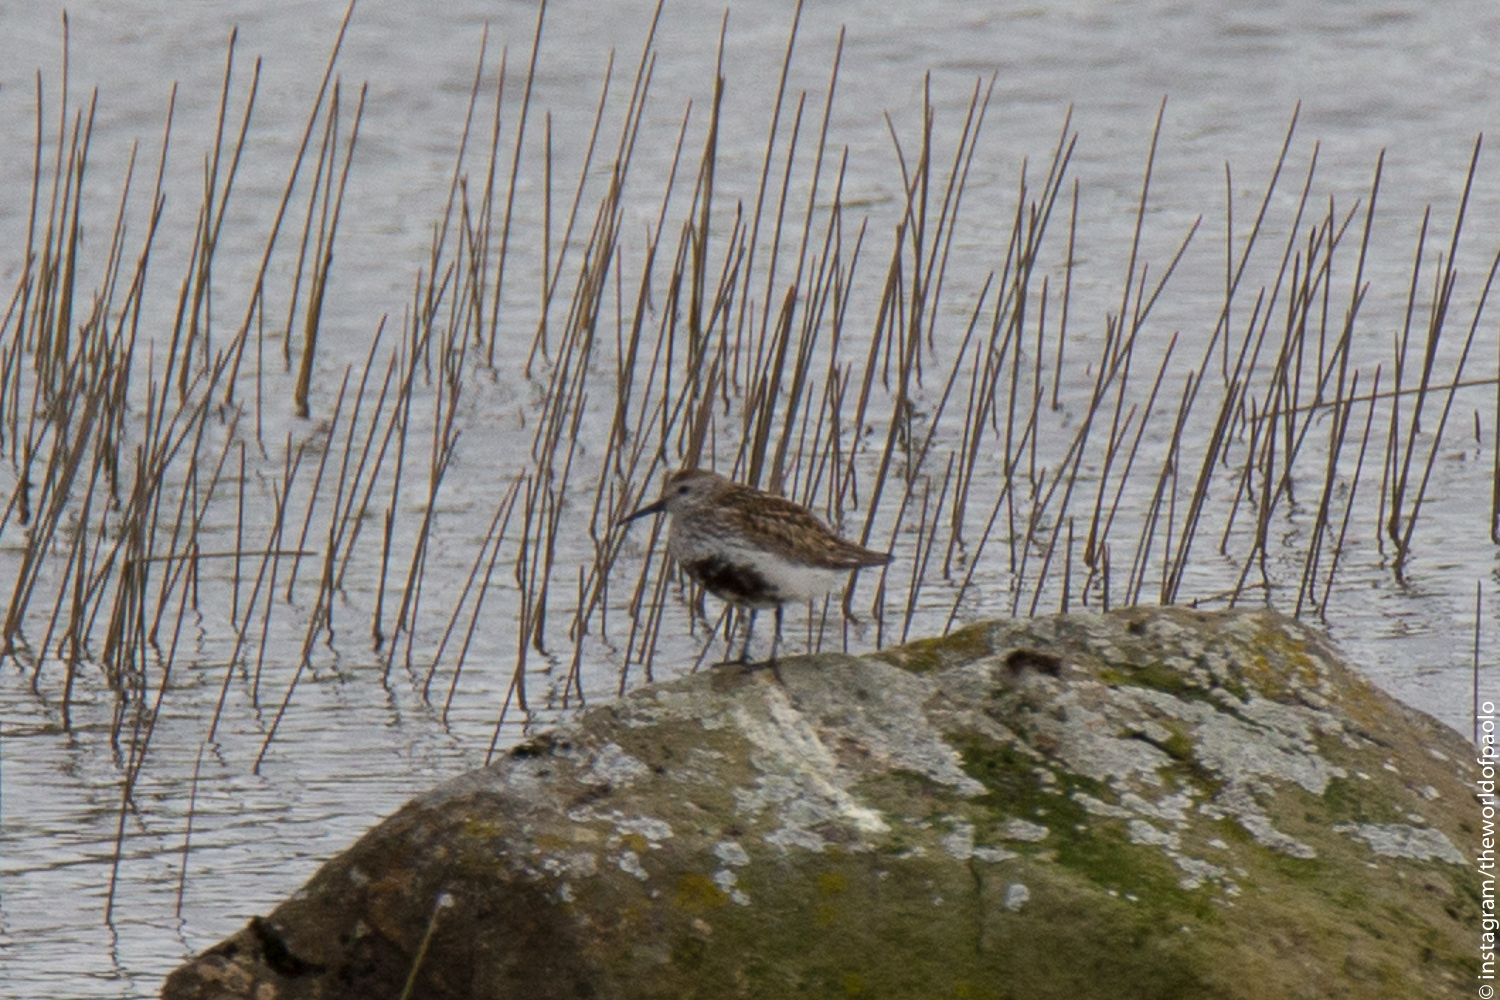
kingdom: Animalia
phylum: Chordata
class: Aves
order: Charadriiformes
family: Scolopacidae
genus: Calidris
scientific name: Calidris alpina
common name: Dunlin
